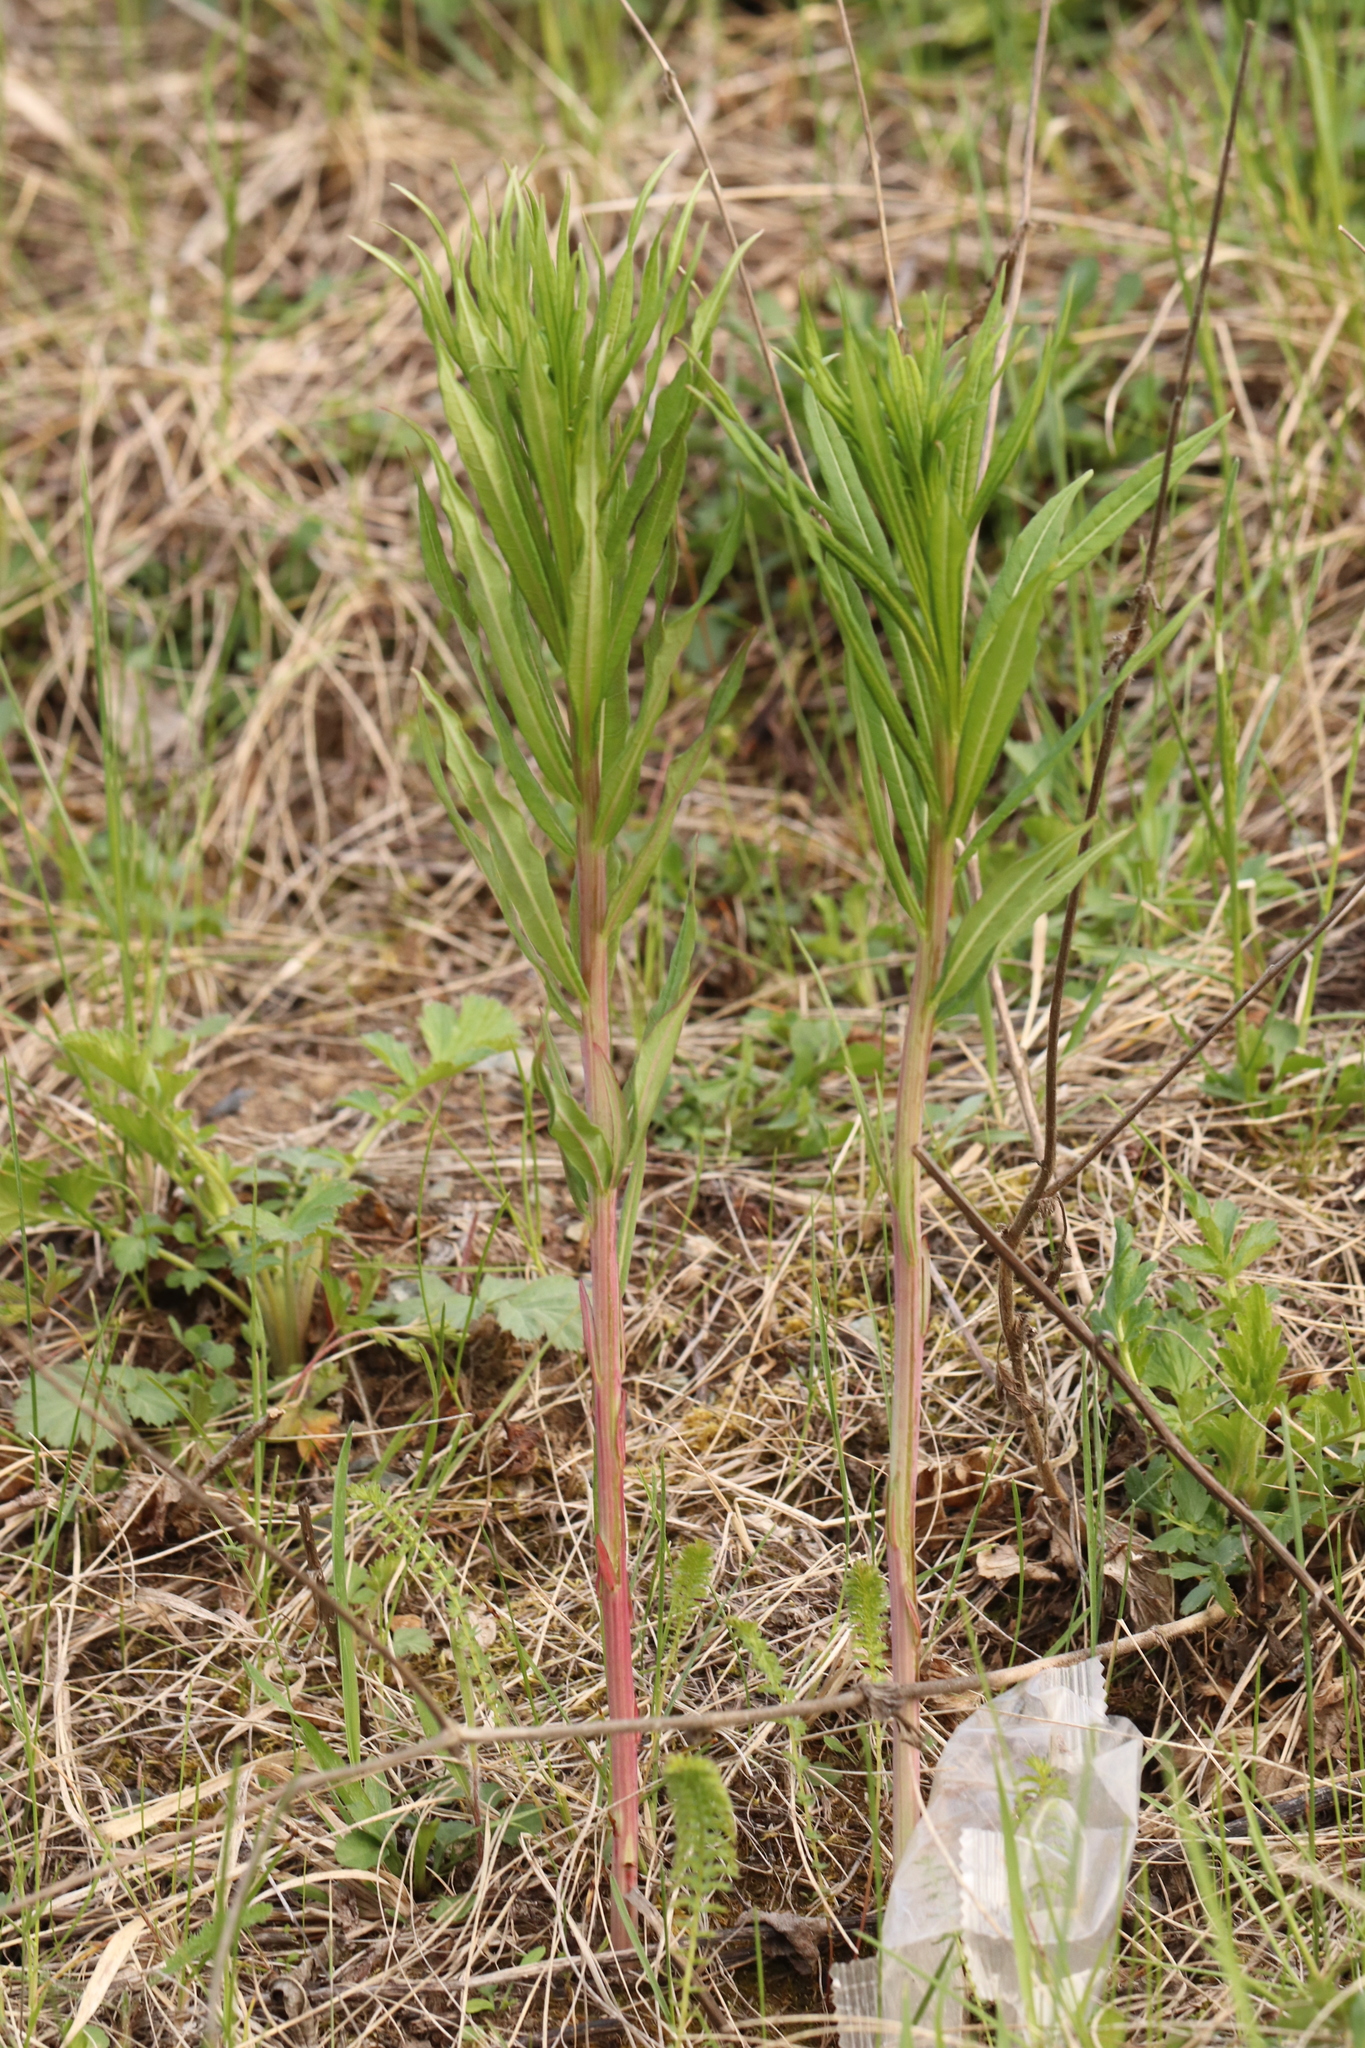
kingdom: Plantae
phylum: Tracheophyta
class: Magnoliopsida
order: Myrtales
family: Onagraceae
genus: Chamaenerion
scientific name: Chamaenerion angustifolium
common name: Fireweed
